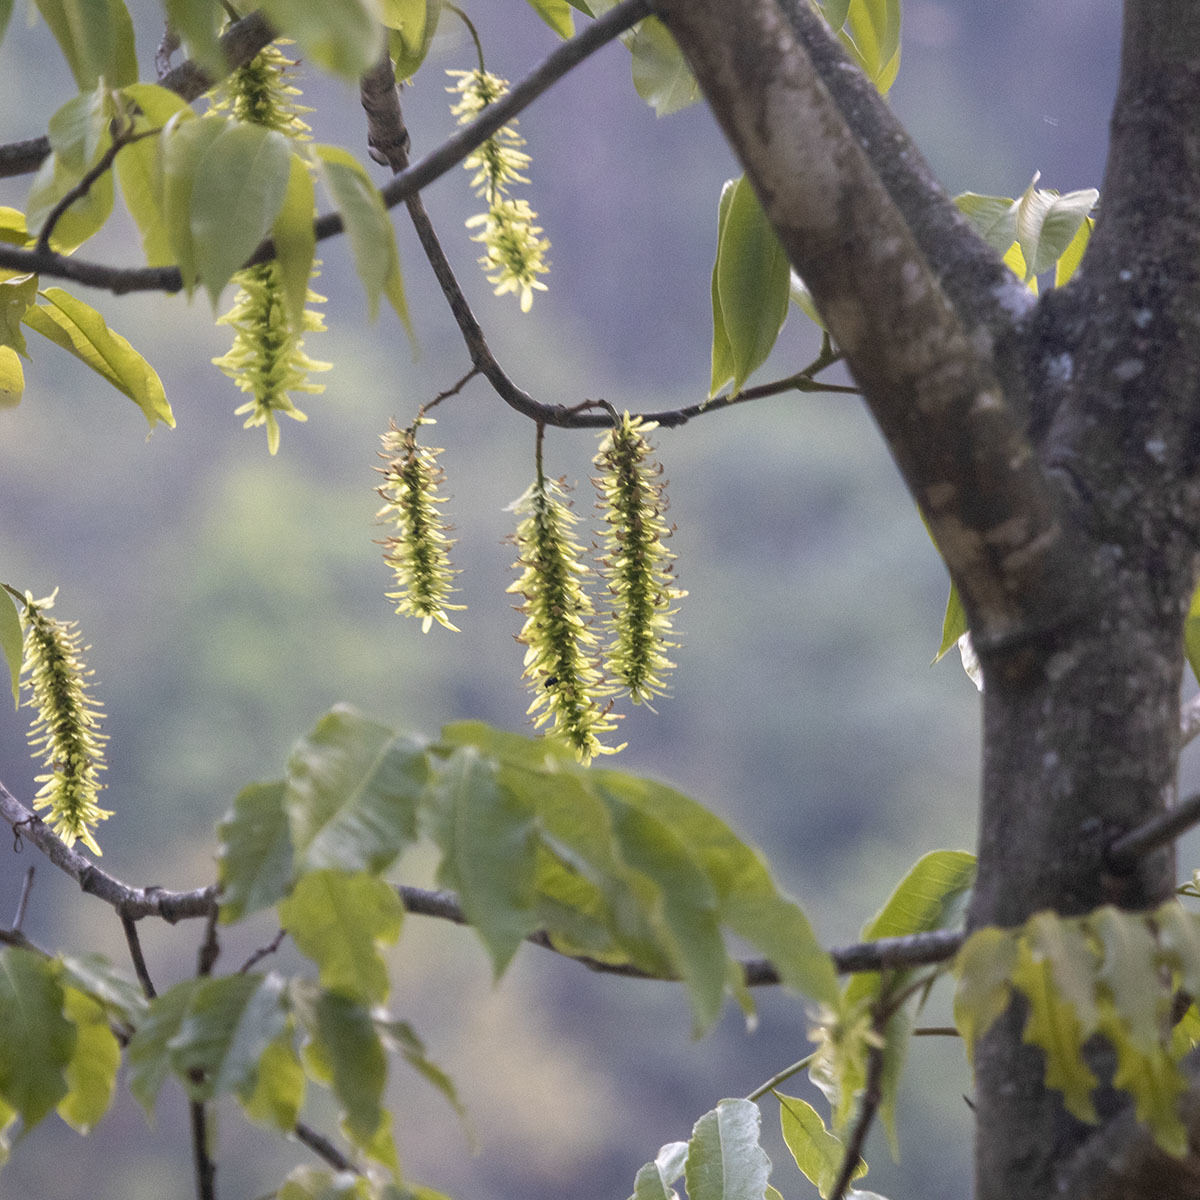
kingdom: Plantae
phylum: Tracheophyta
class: Magnoliopsida
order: Fagales
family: Juglandaceae
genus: Engelhardia
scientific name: Engelhardia spicata
